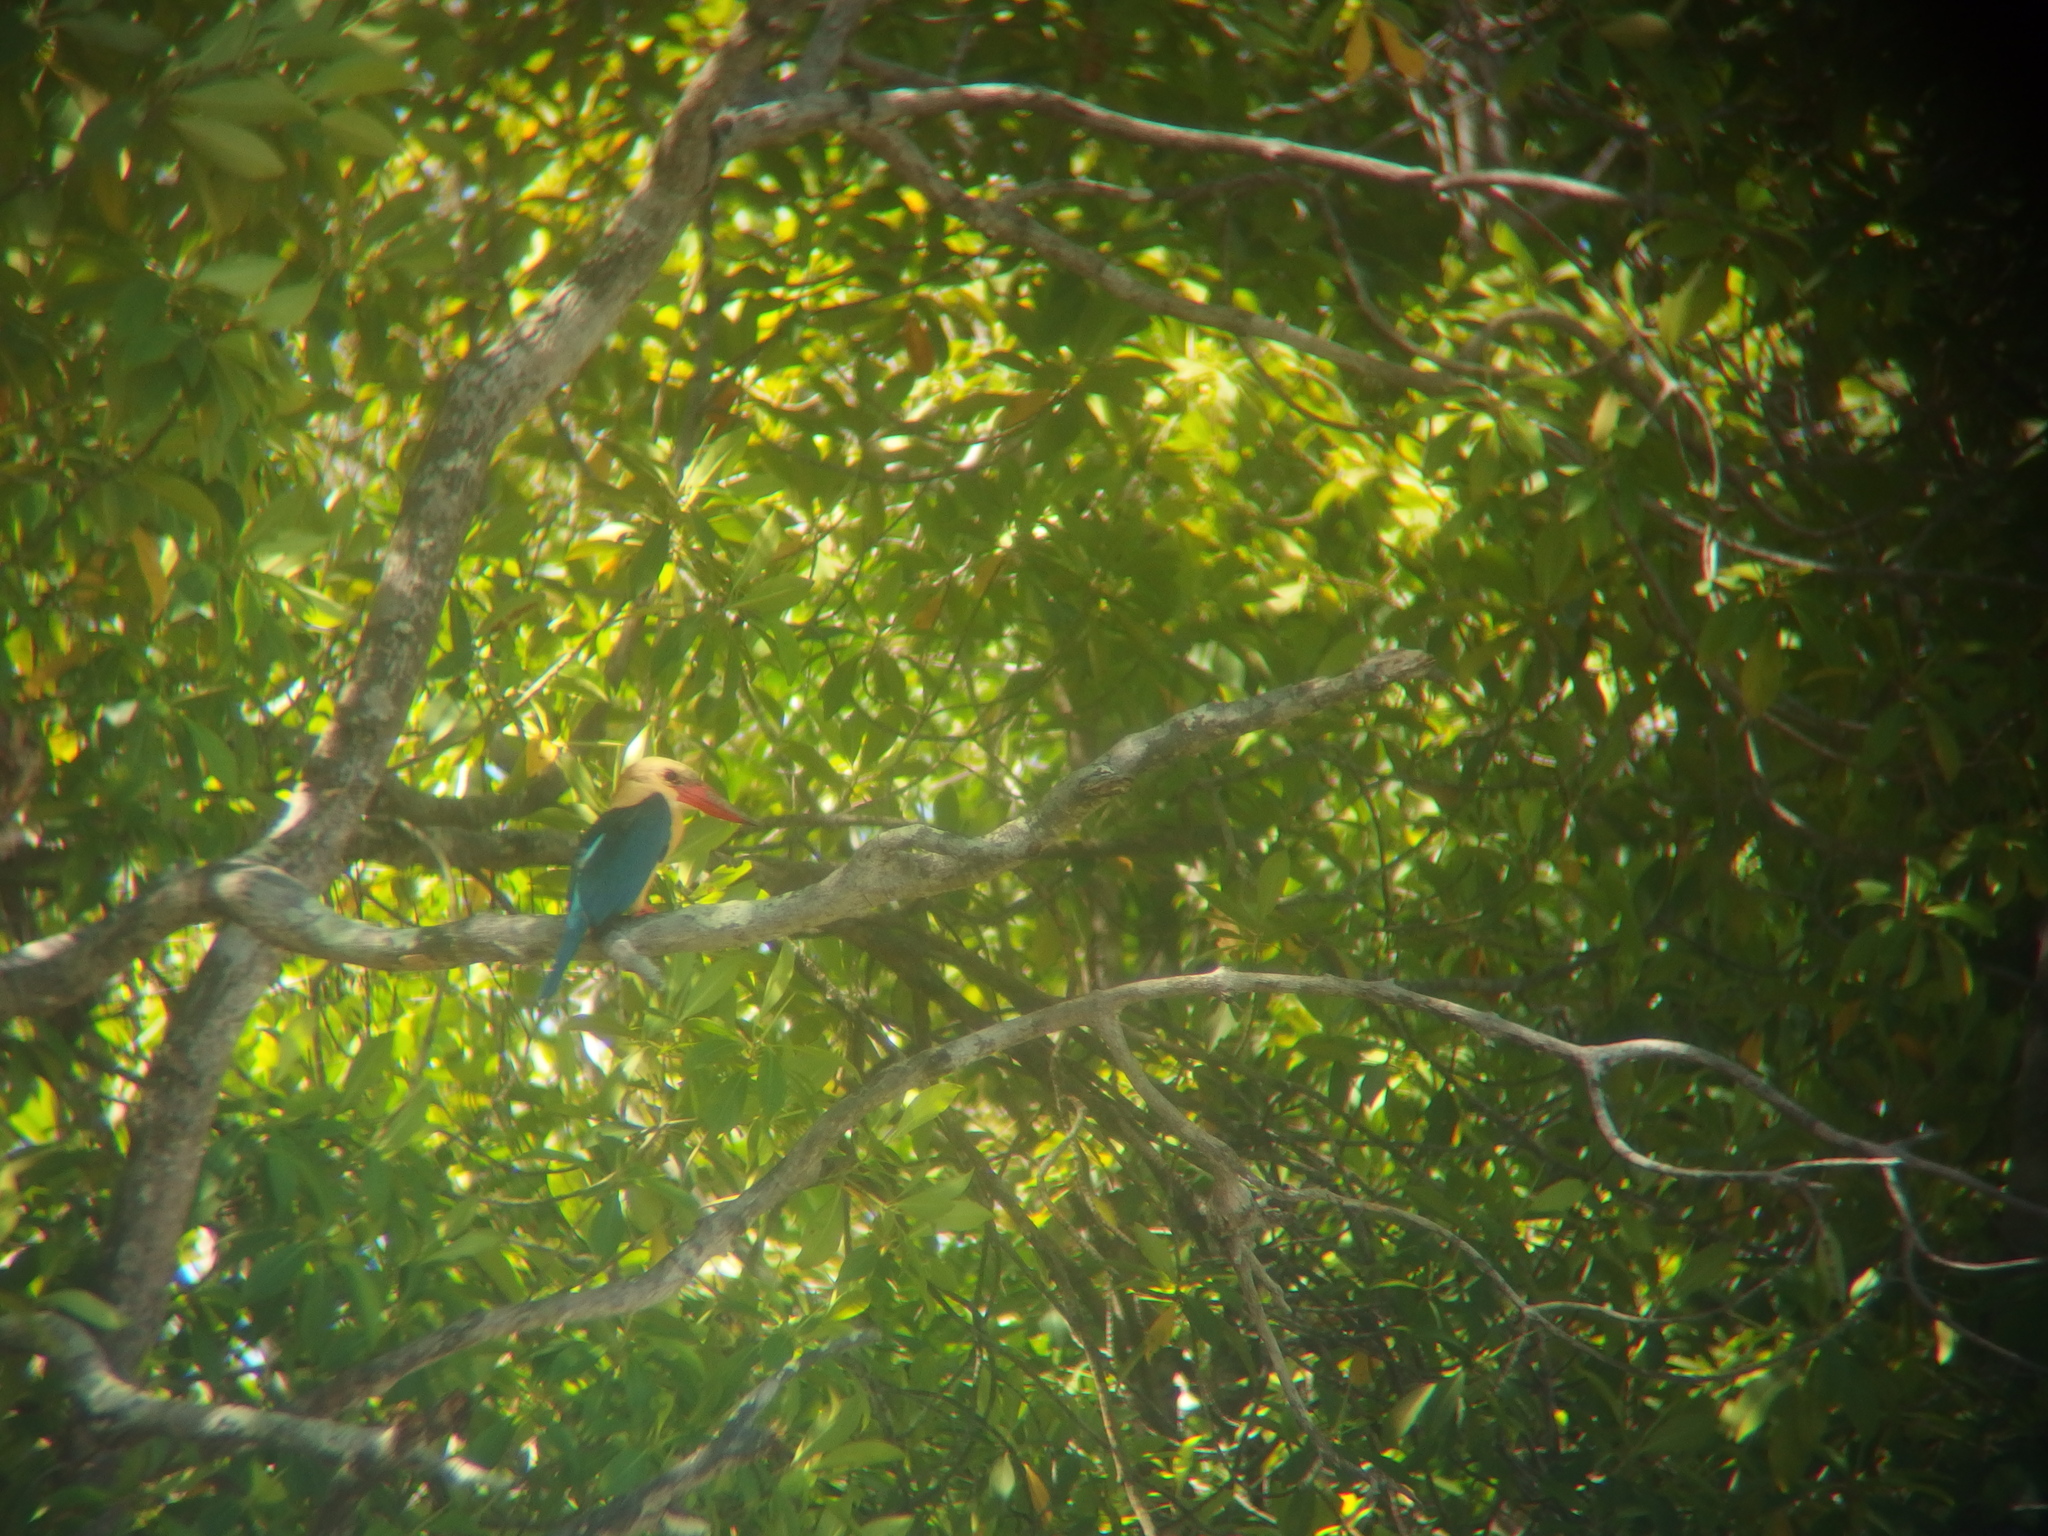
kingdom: Animalia
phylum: Chordata
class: Aves
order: Coraciiformes
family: Alcedinidae
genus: Pelargopsis
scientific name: Pelargopsis capensis
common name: Stork-billed kingfisher
